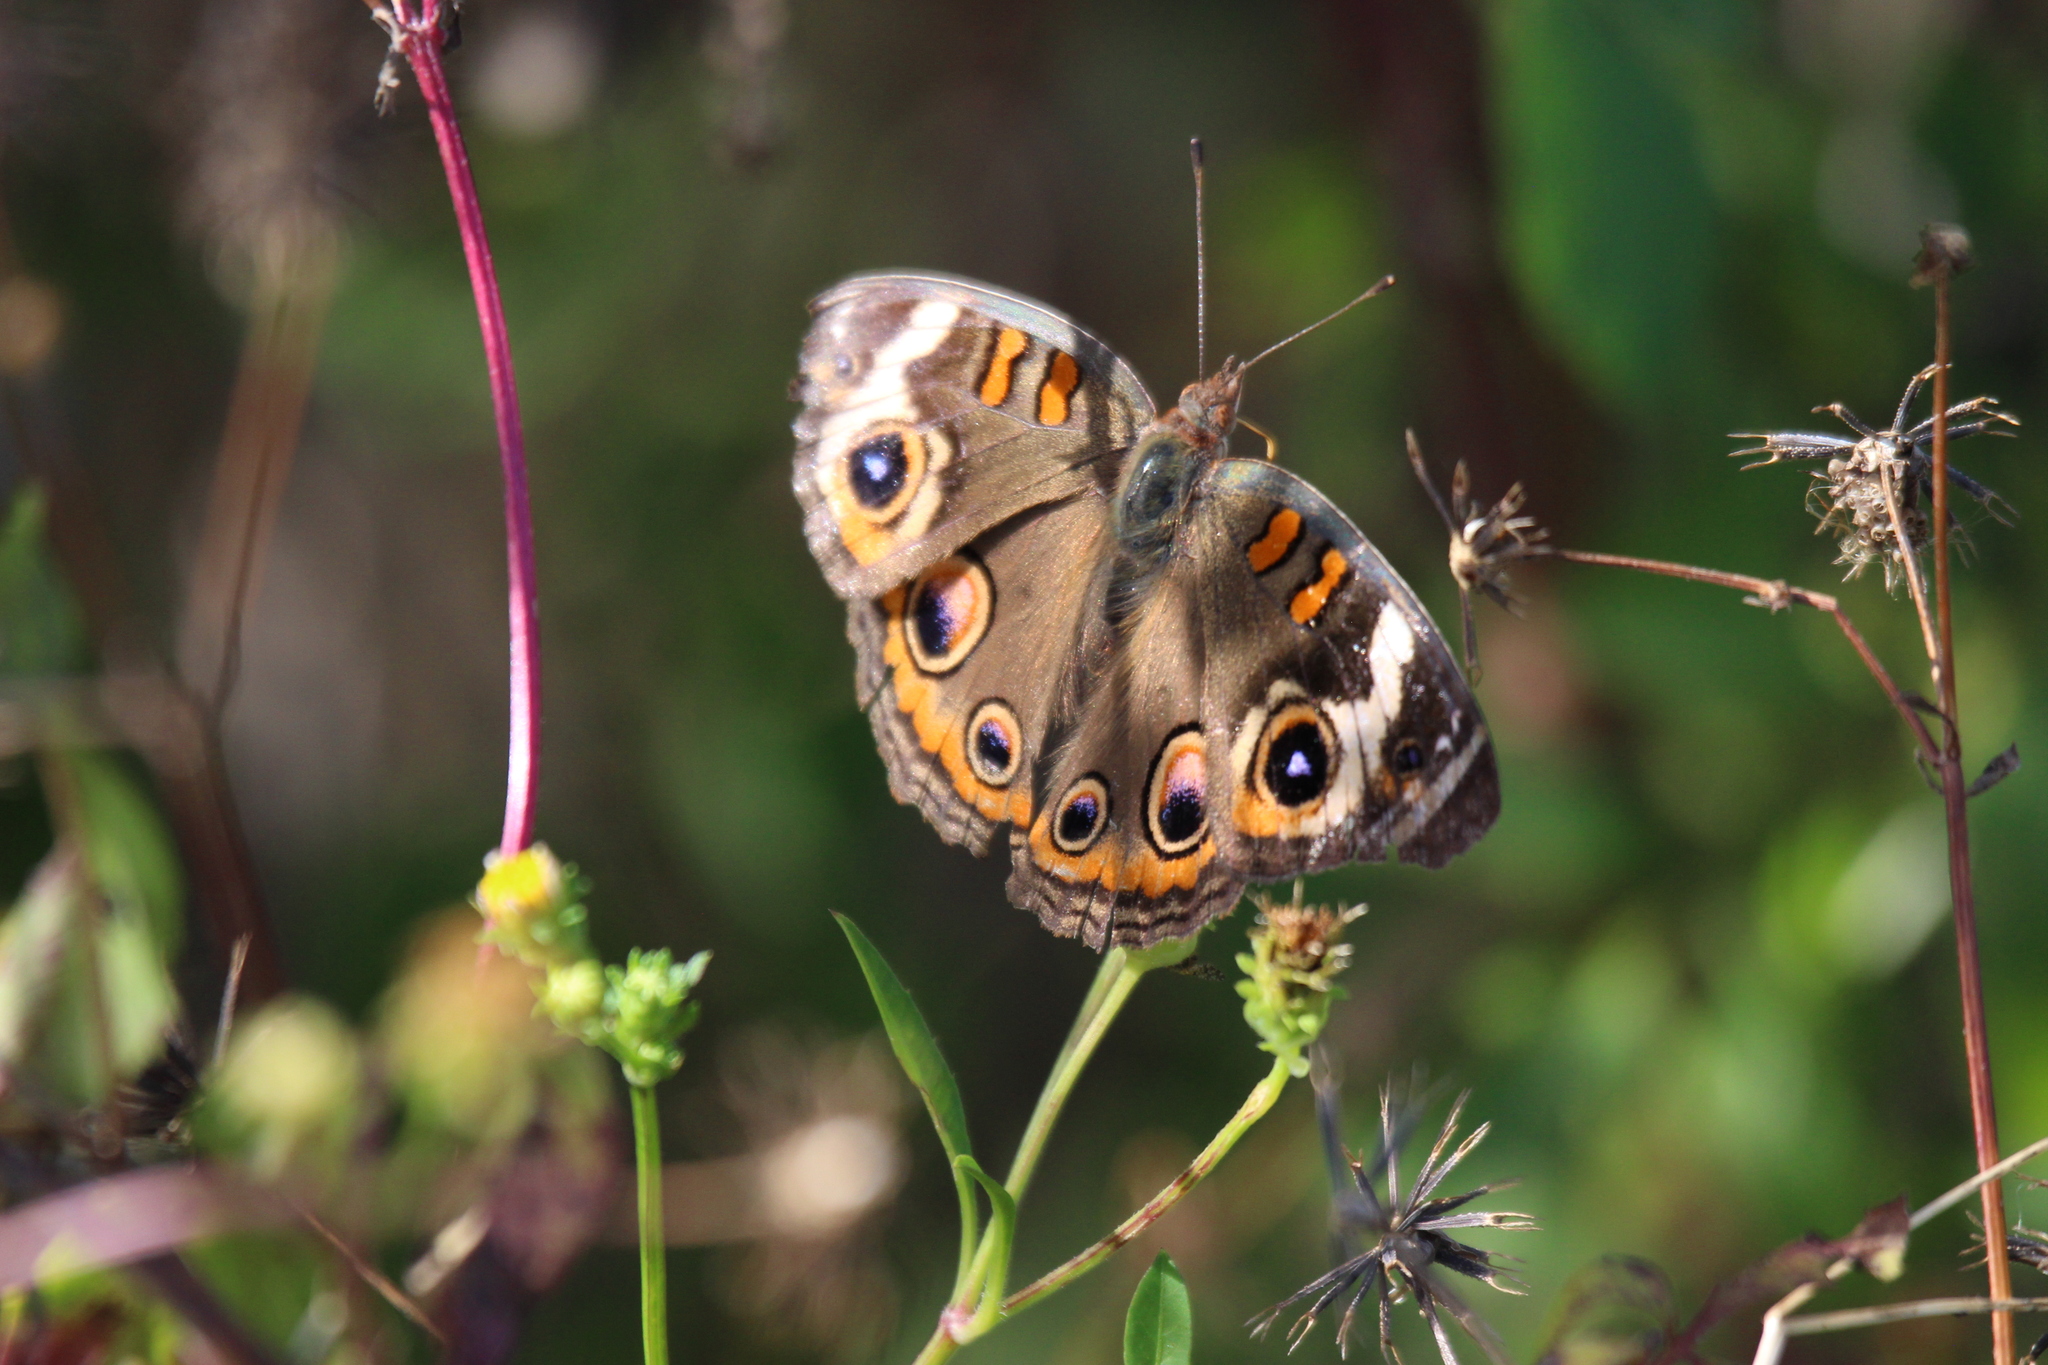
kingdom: Animalia
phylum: Arthropoda
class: Insecta
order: Lepidoptera
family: Nymphalidae
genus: Junonia
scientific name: Junonia coenia
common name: Common buckeye
